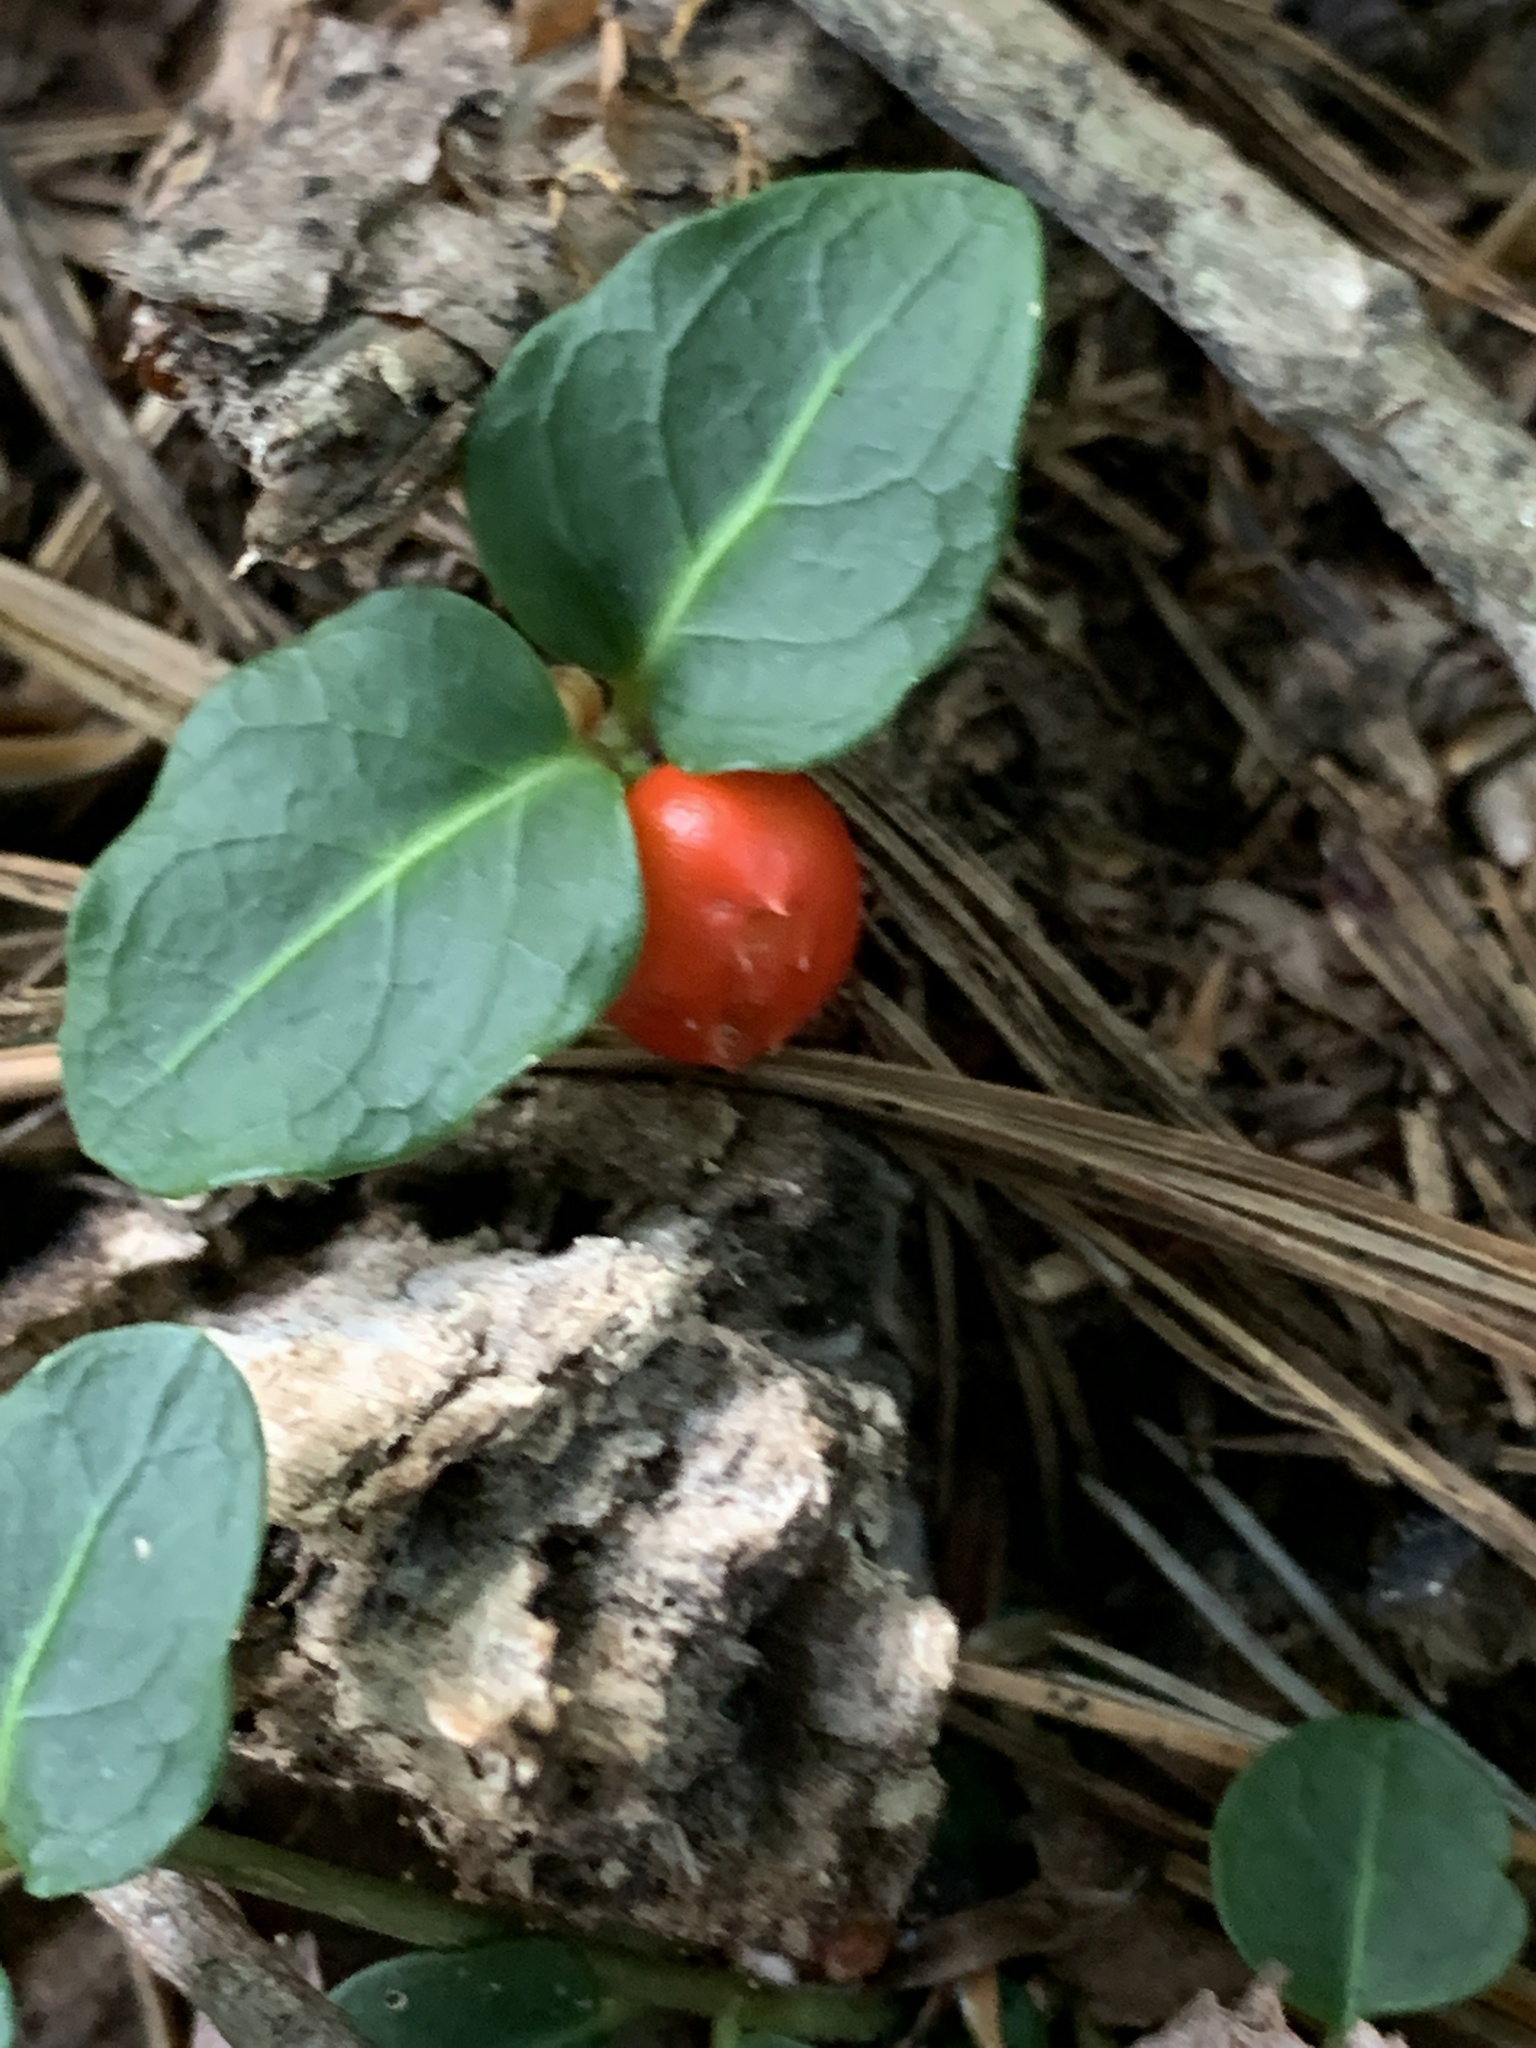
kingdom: Plantae
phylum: Tracheophyta
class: Magnoliopsida
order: Gentianales
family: Rubiaceae
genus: Mitchella
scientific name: Mitchella repens
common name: Partridge-berry
